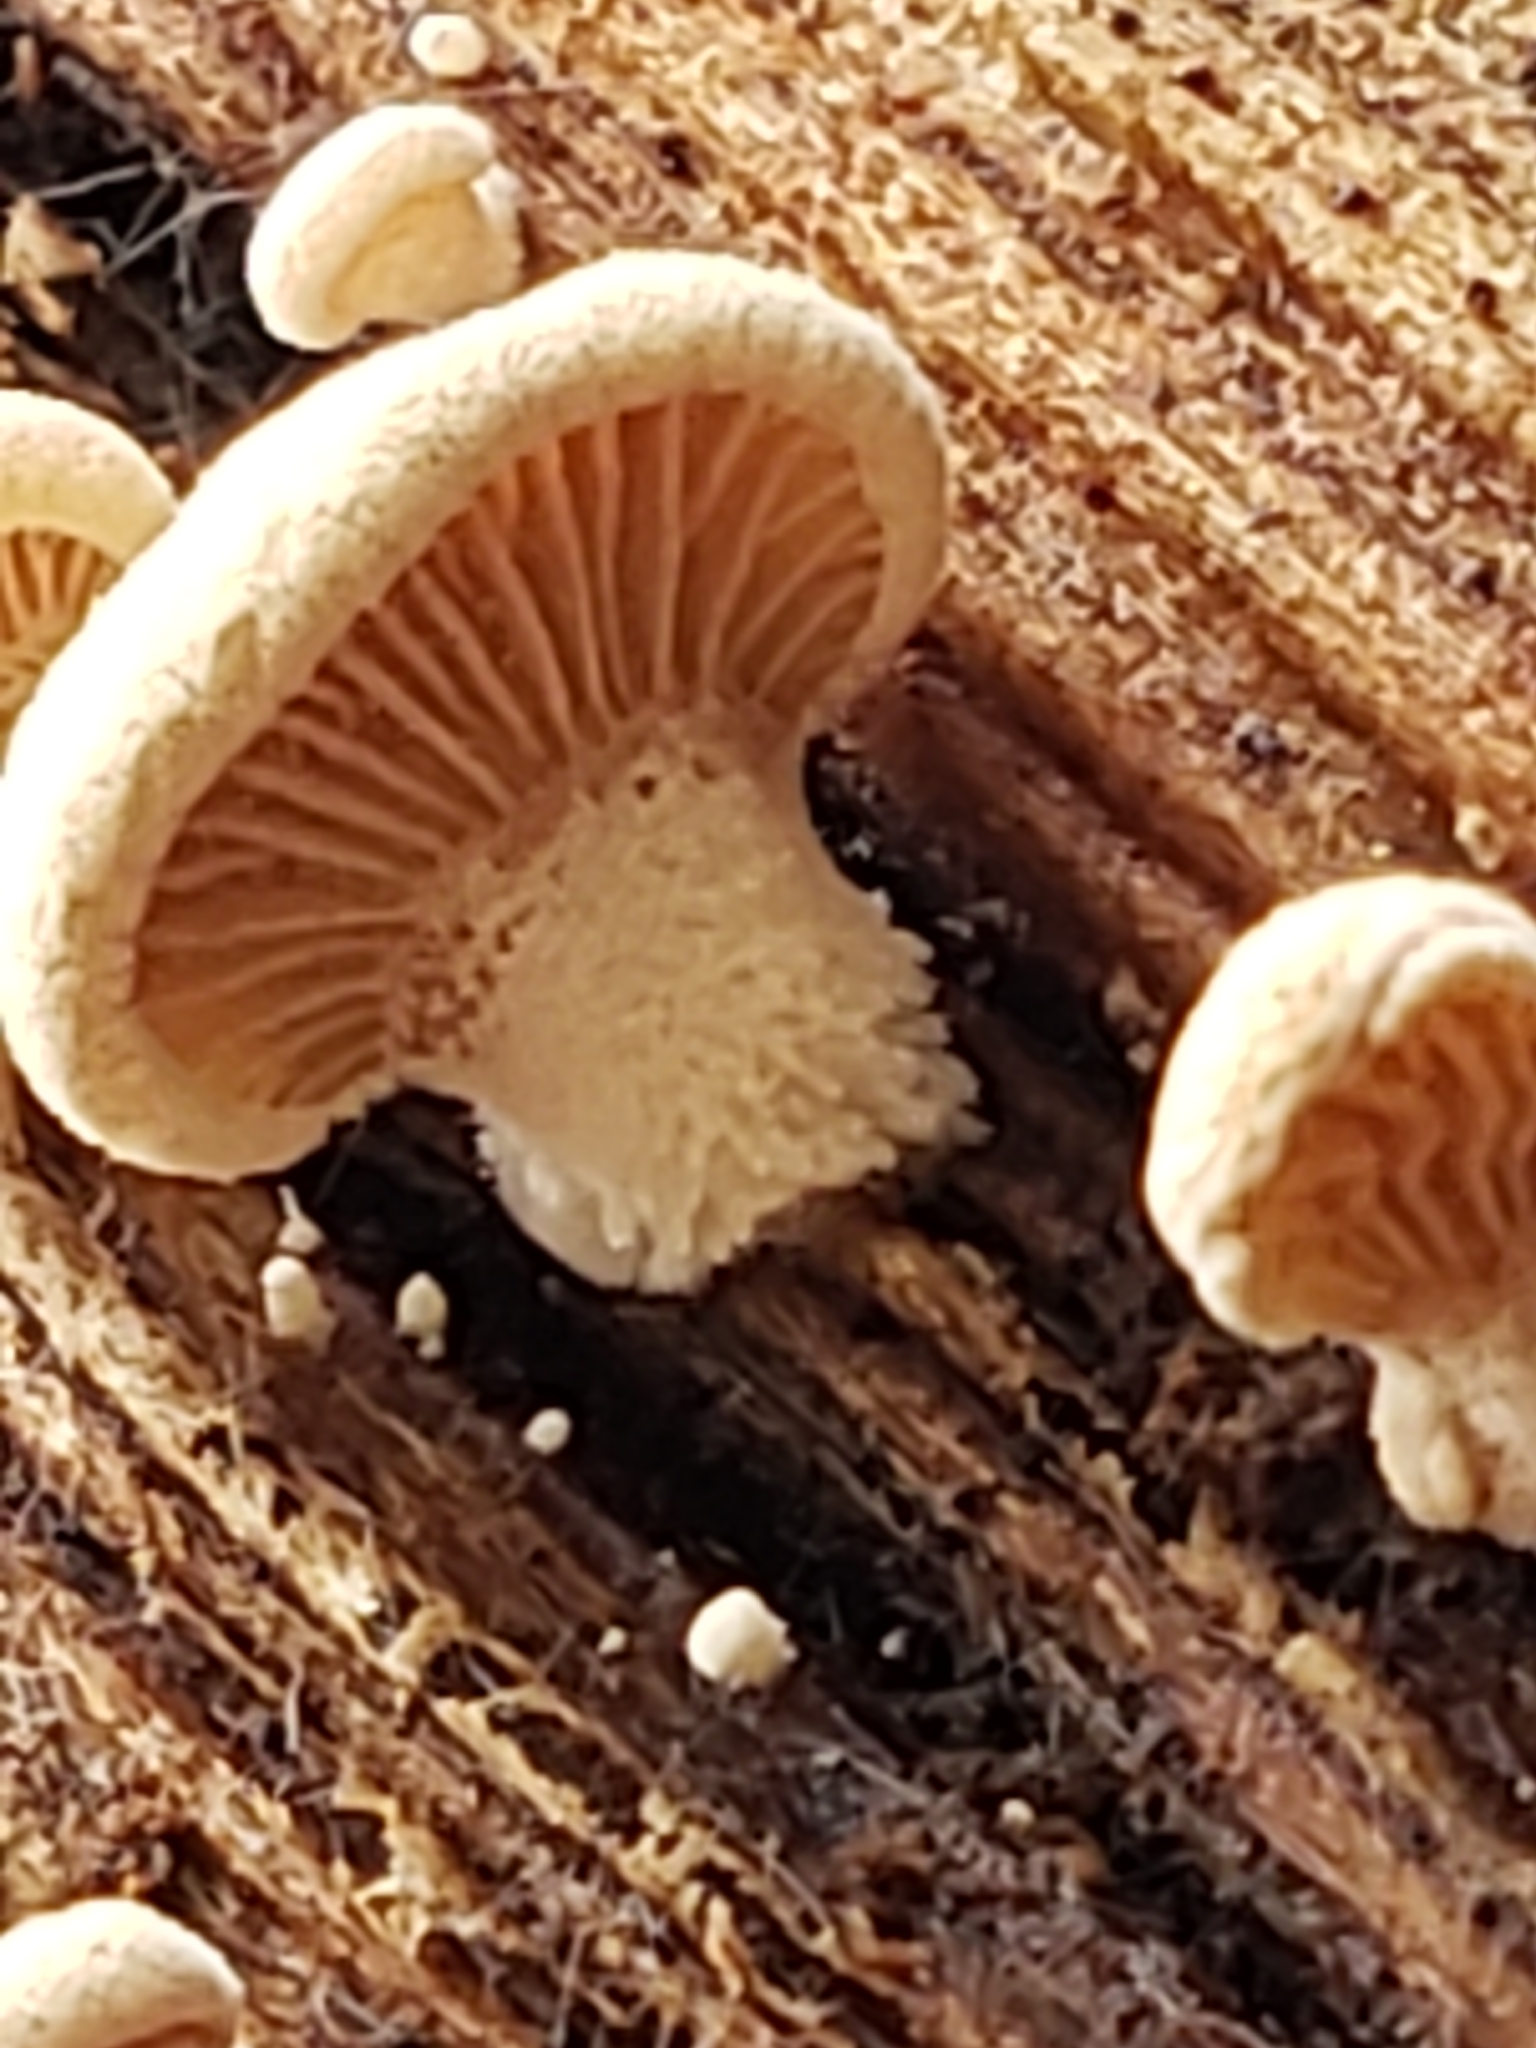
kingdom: Fungi
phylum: Basidiomycota
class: Agaricomycetes
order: Agaricales
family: Mycenaceae
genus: Panellus
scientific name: Panellus stipticus
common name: Bitter oysterling
